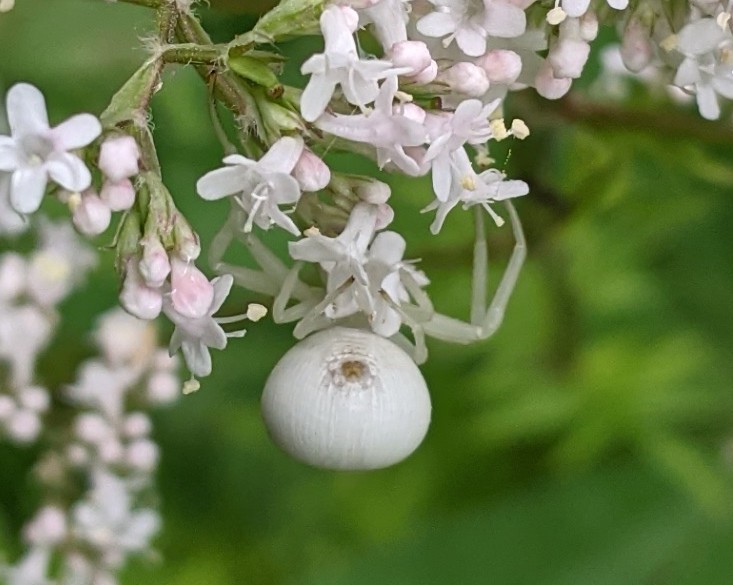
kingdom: Animalia
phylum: Arthropoda
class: Arachnida
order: Araneae
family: Thomisidae
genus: Misumena
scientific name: Misumena vatia
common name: Goldenrod crab spider
